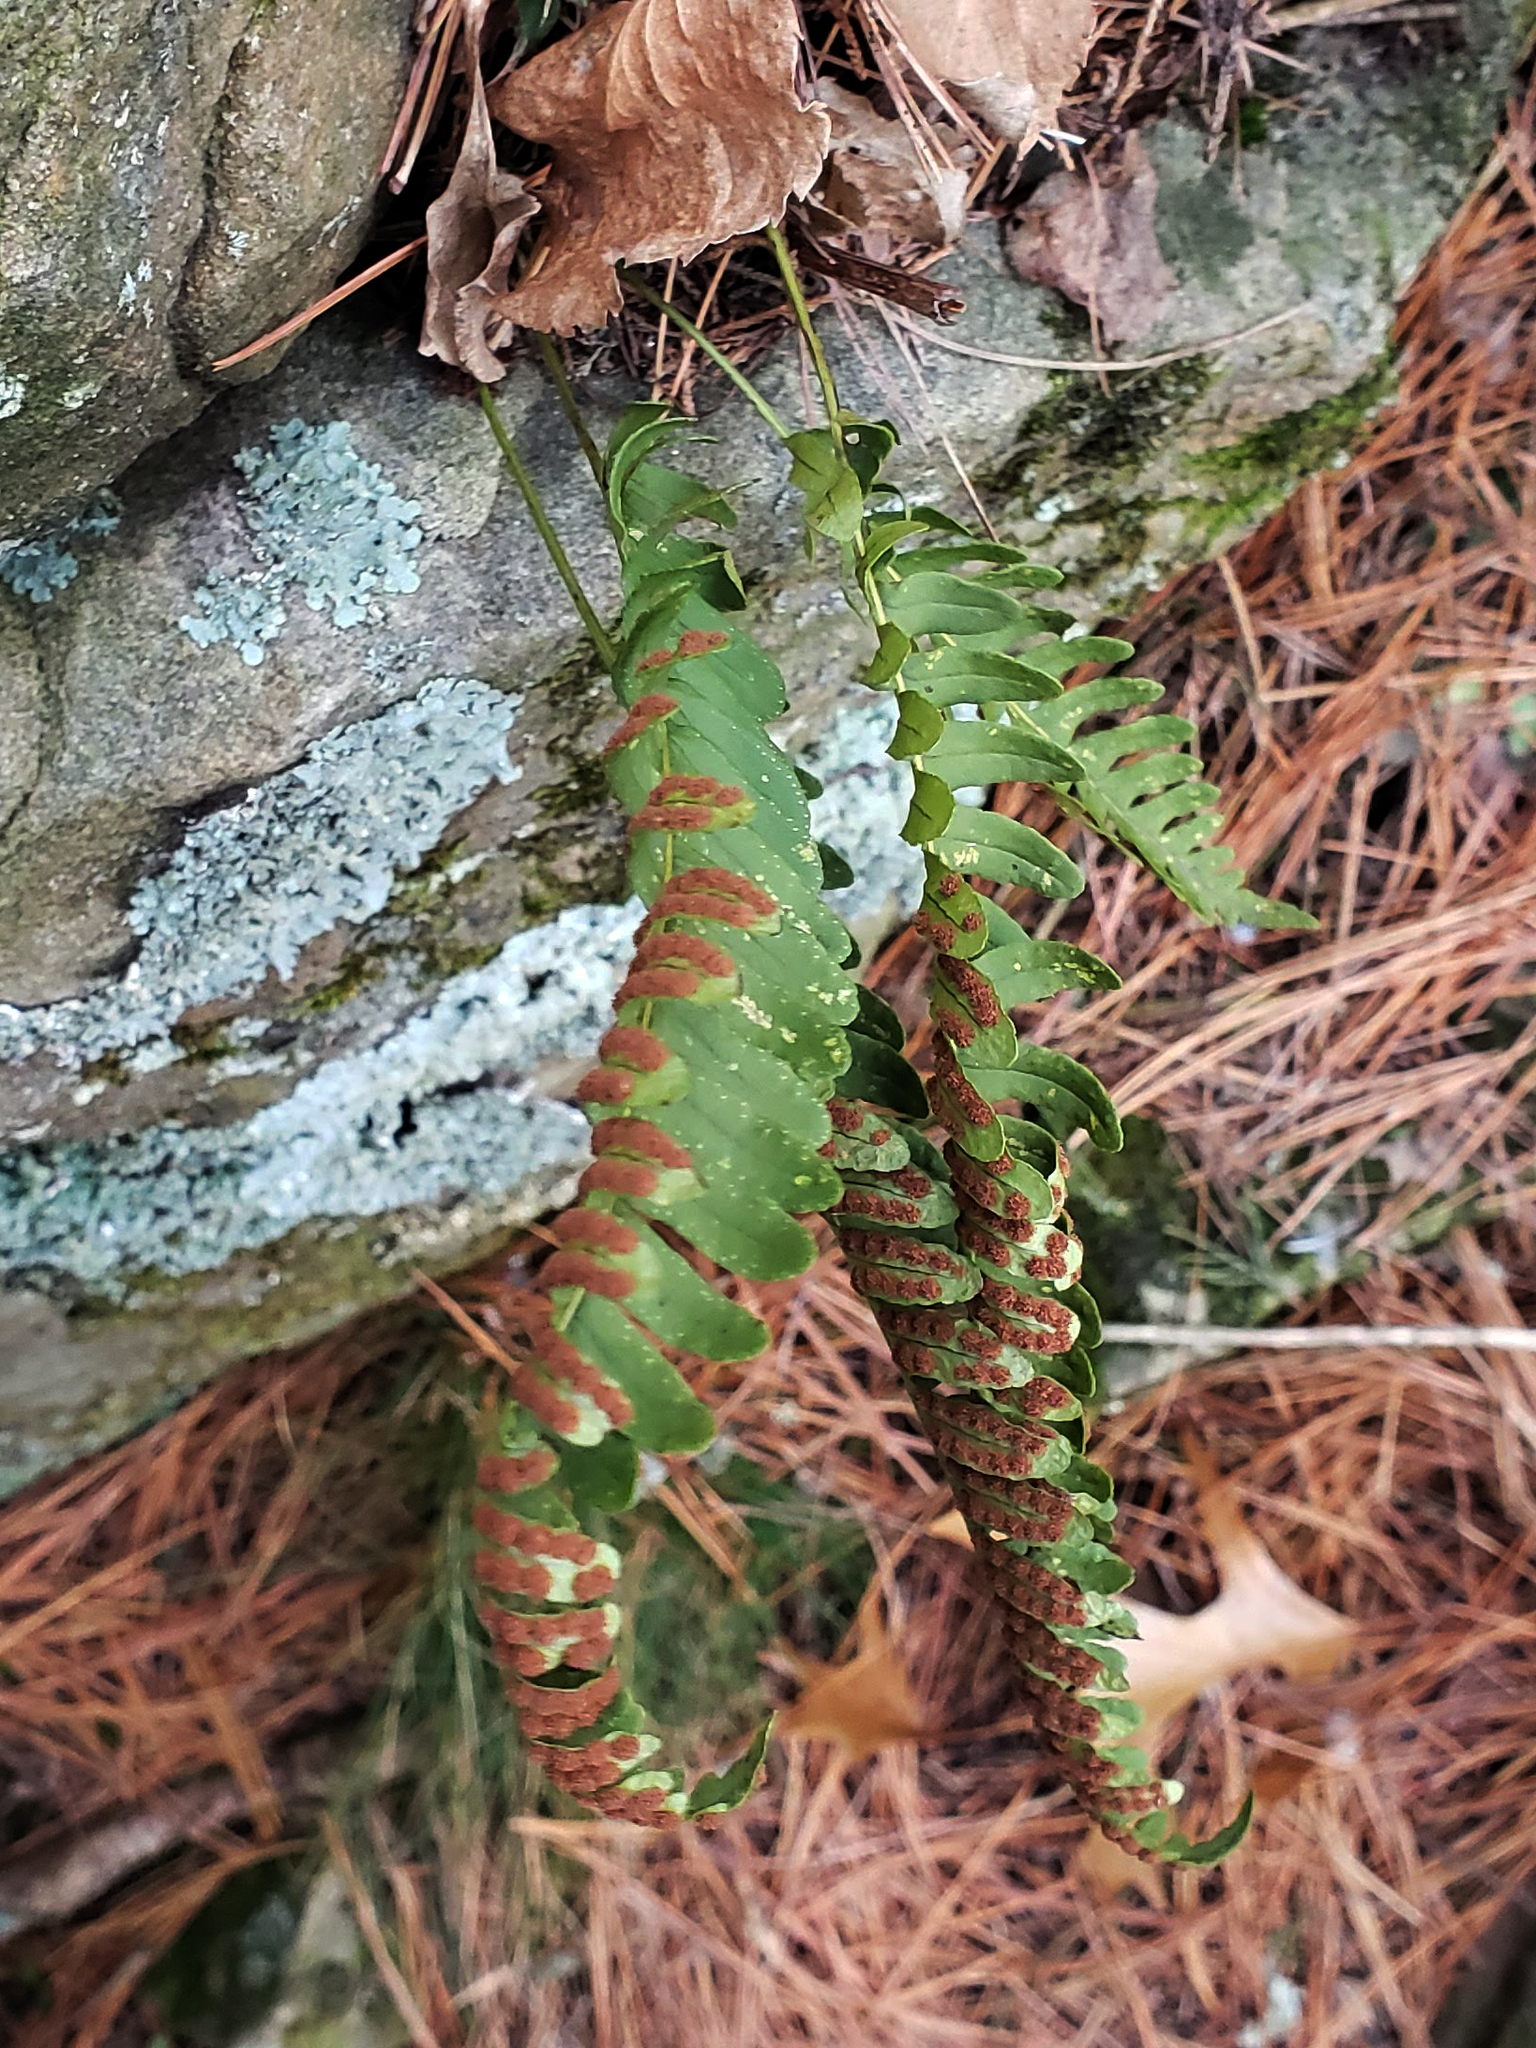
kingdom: Plantae
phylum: Tracheophyta
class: Polypodiopsida
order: Polypodiales
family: Polypodiaceae
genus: Polypodium
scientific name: Polypodium virginianum
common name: American wall fern
